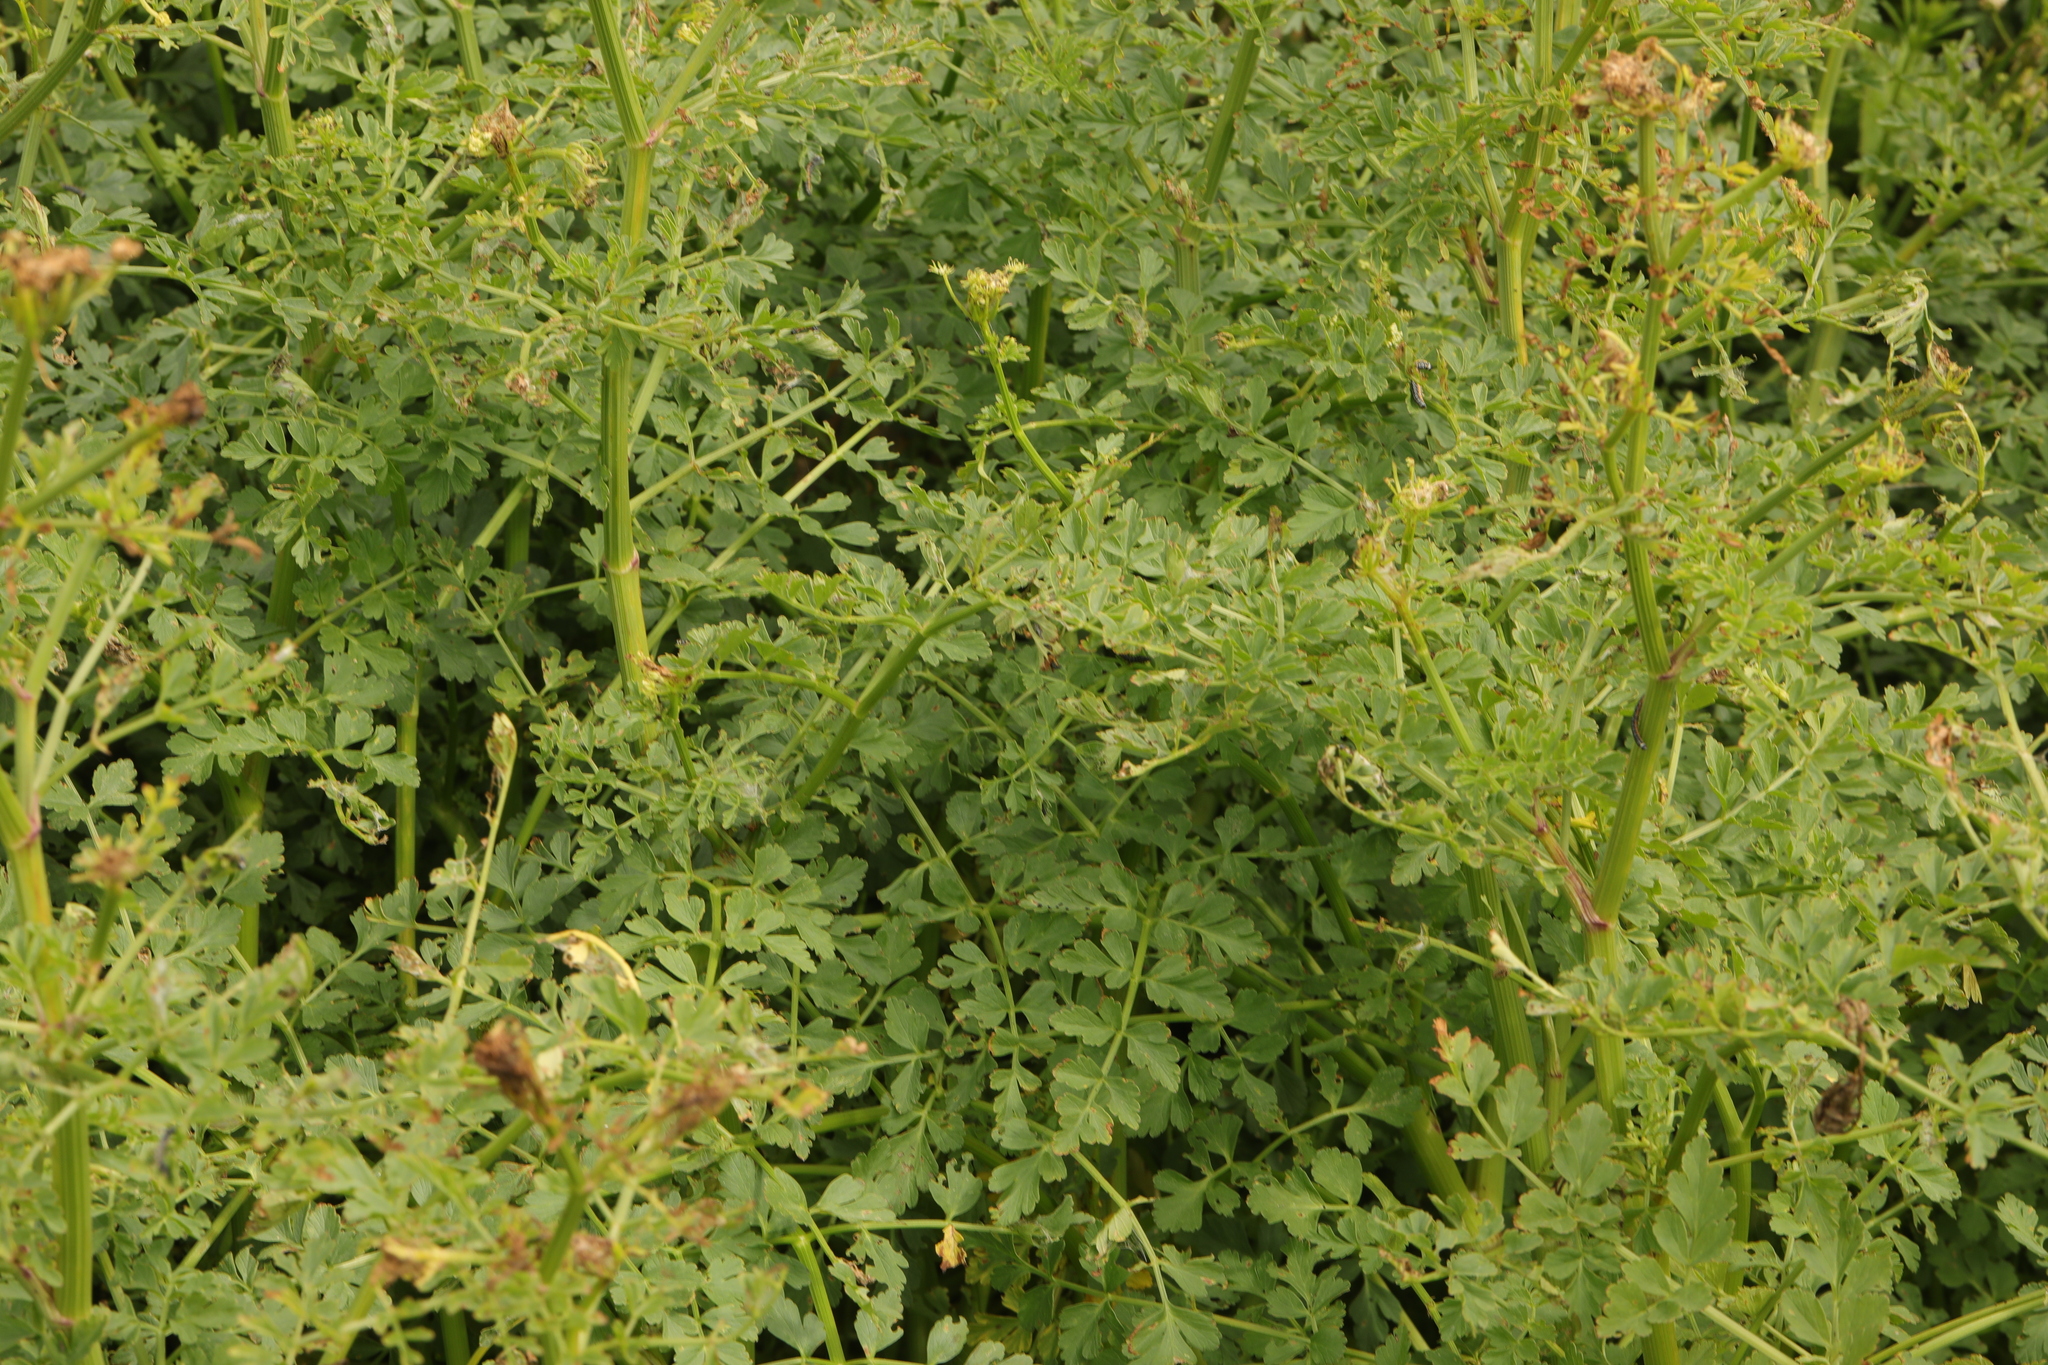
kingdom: Plantae
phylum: Tracheophyta
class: Magnoliopsida
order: Apiales
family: Apiaceae
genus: Oenanthe
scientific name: Oenanthe crocata
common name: Hemlock water-dropwort
